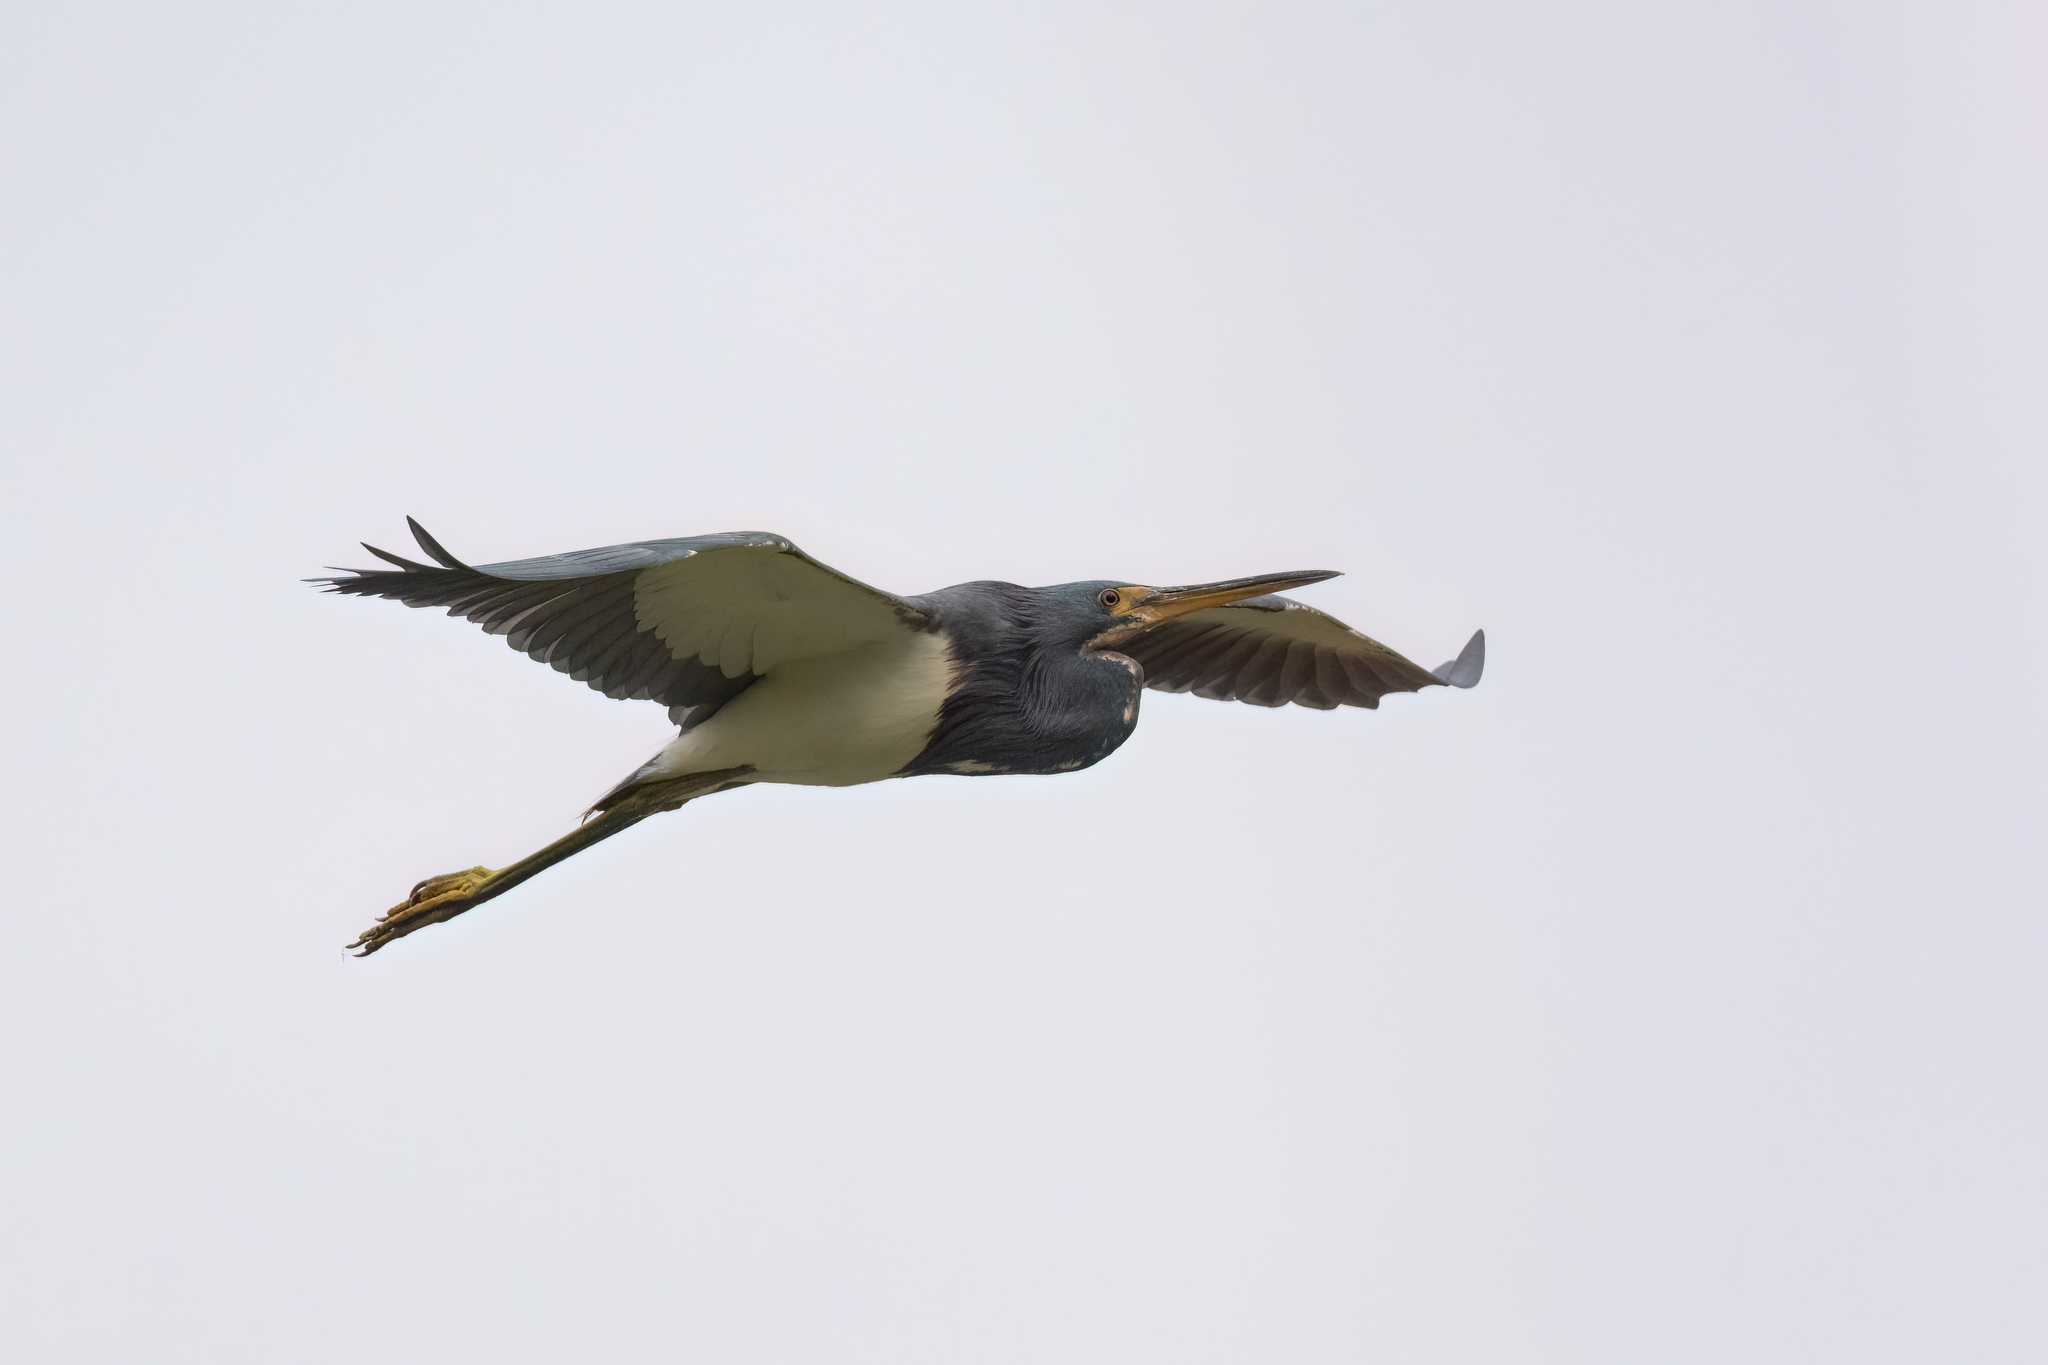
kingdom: Animalia
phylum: Chordata
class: Aves
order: Pelecaniformes
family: Ardeidae
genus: Egretta
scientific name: Egretta tricolor
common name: Tricolored heron
